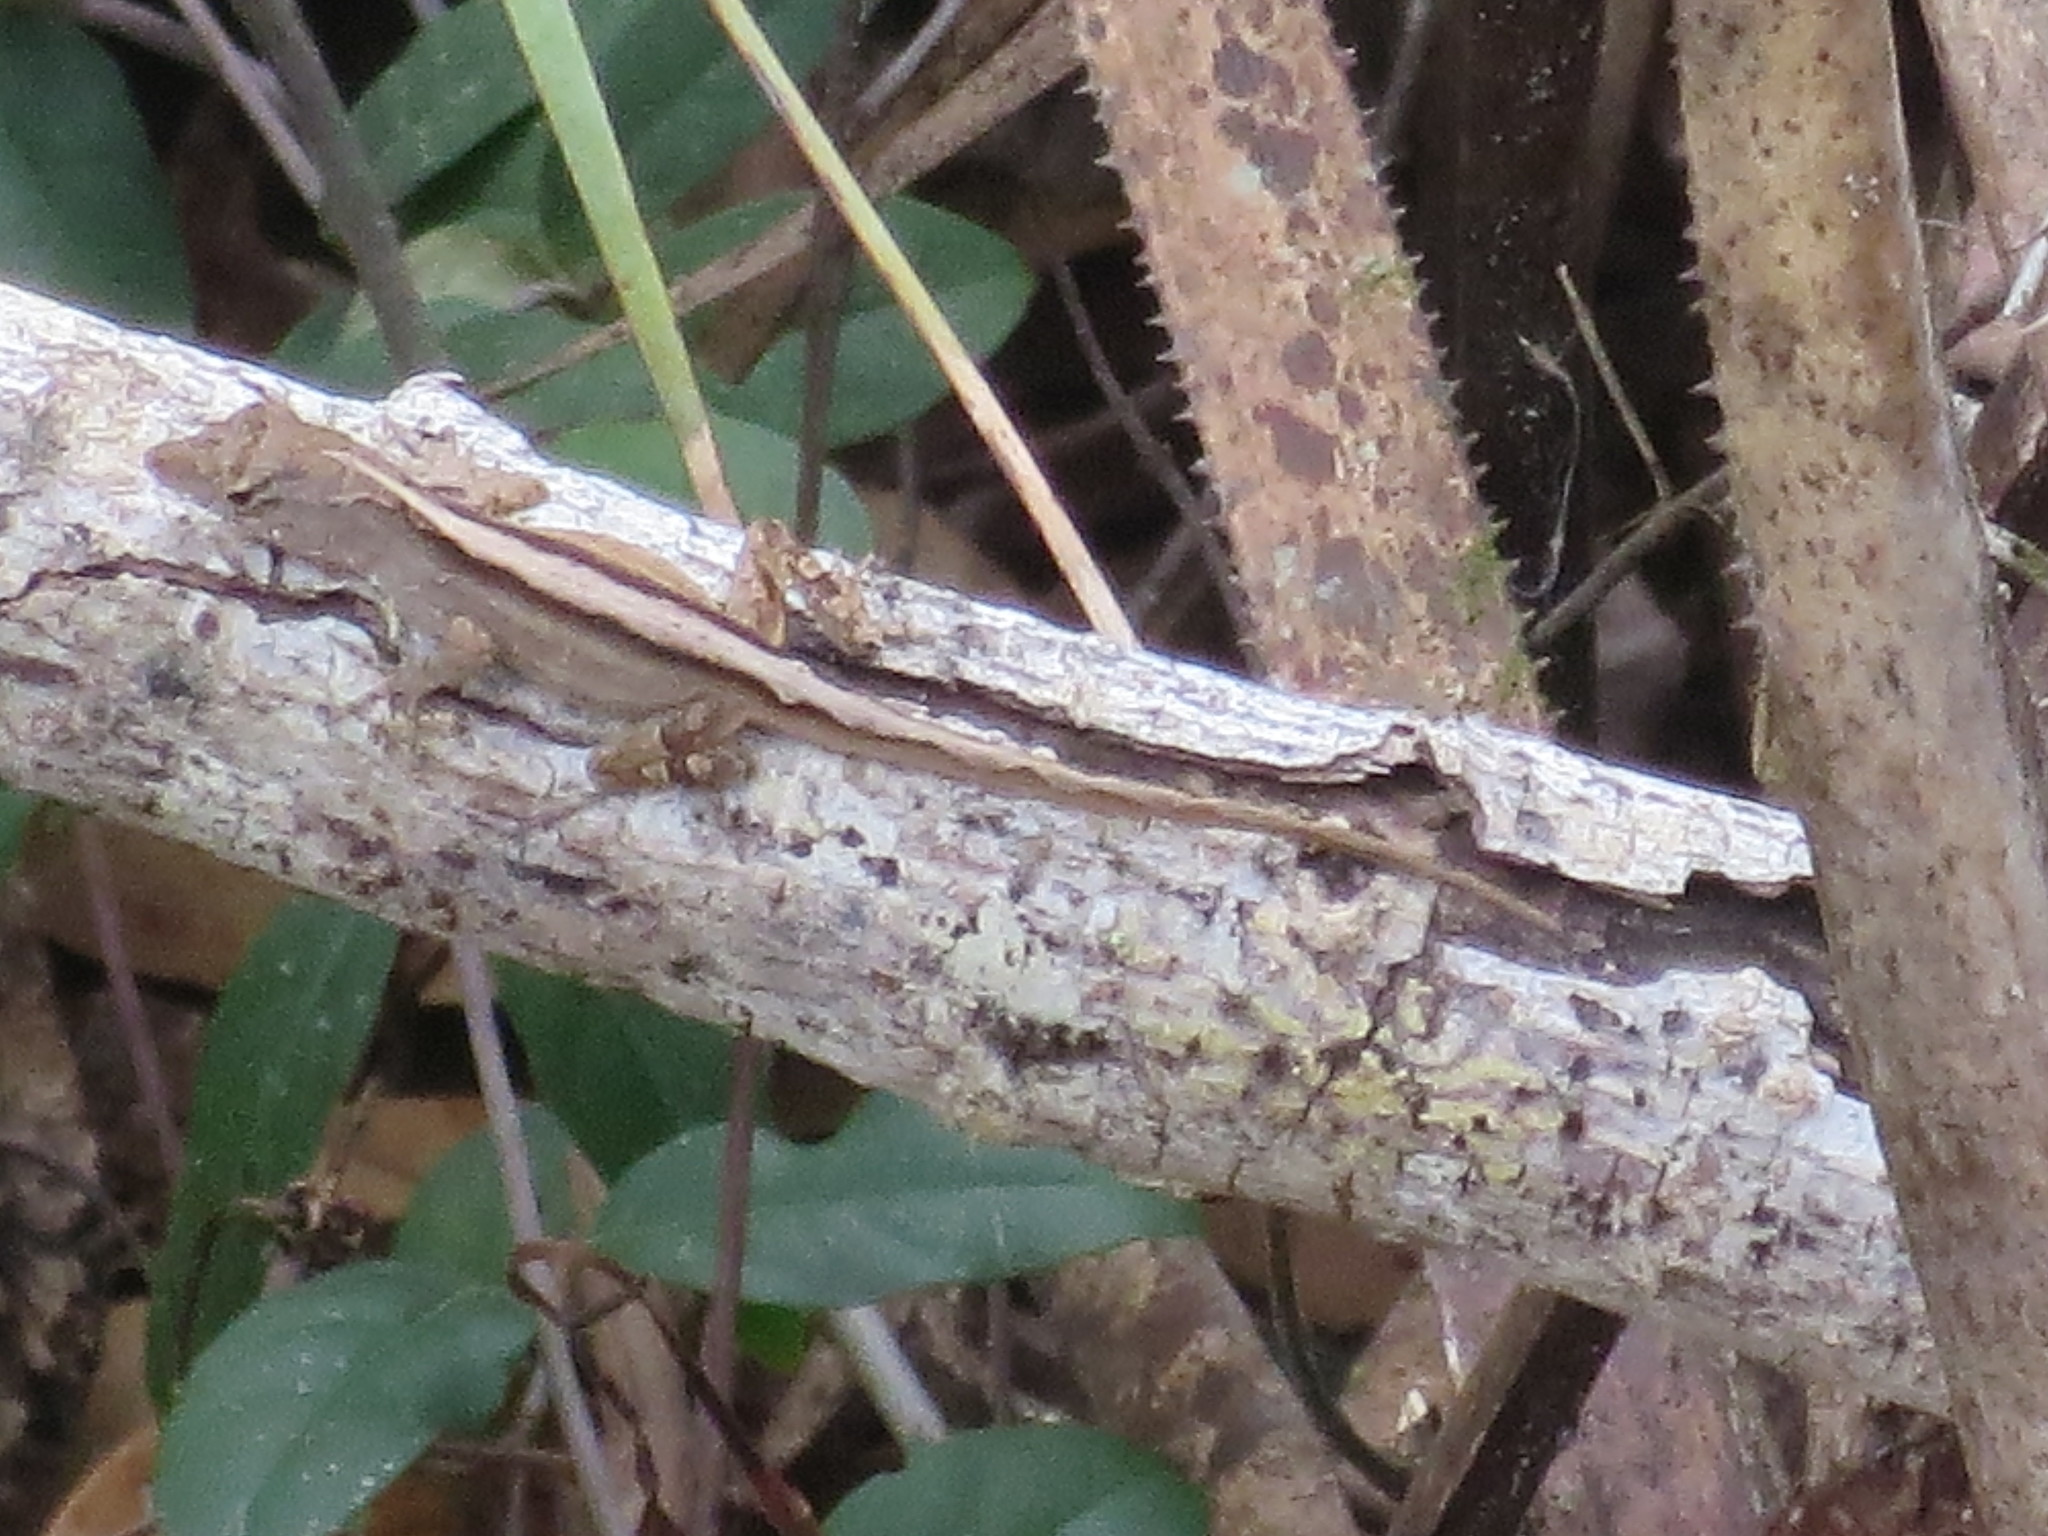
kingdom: Animalia
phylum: Chordata
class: Squamata
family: Dactyloidae
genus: Anolis
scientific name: Anolis sagrei
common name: Brown anole
